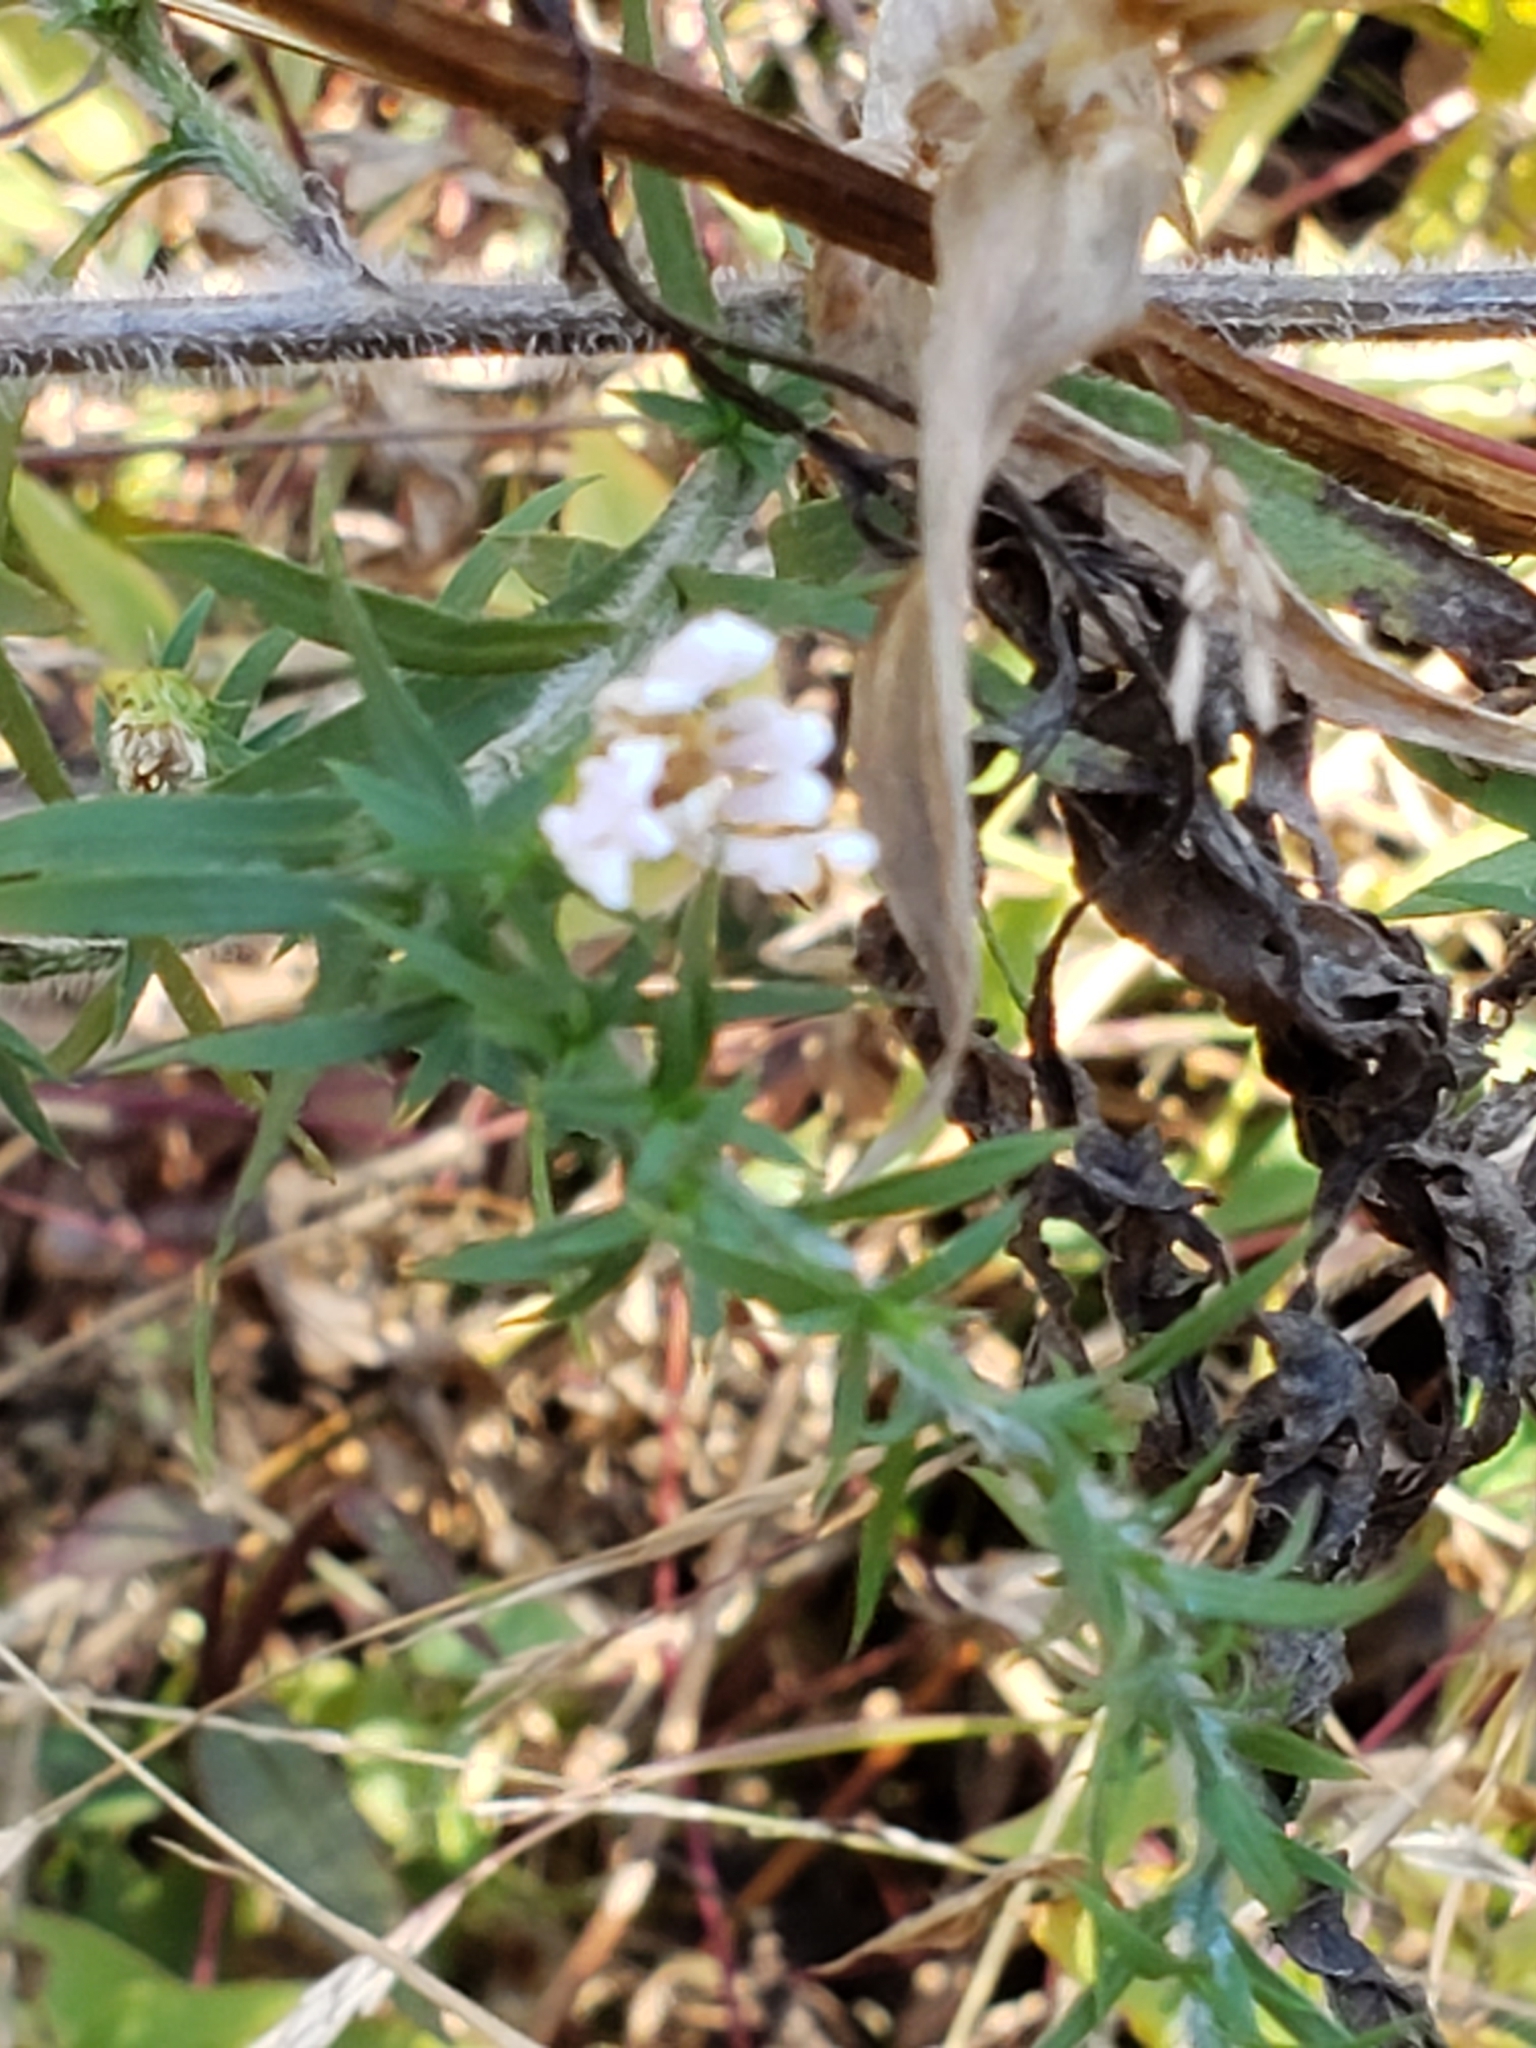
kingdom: Plantae
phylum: Tracheophyta
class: Magnoliopsida
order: Asterales
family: Asteraceae
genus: Symphyotrichum
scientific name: Symphyotrichum pilosum
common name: Awl aster
